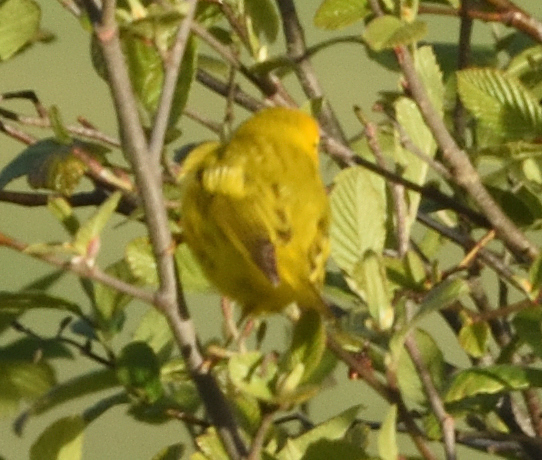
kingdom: Animalia
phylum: Chordata
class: Aves
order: Passeriformes
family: Parulidae
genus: Setophaga
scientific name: Setophaga petechia
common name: Yellow warbler
